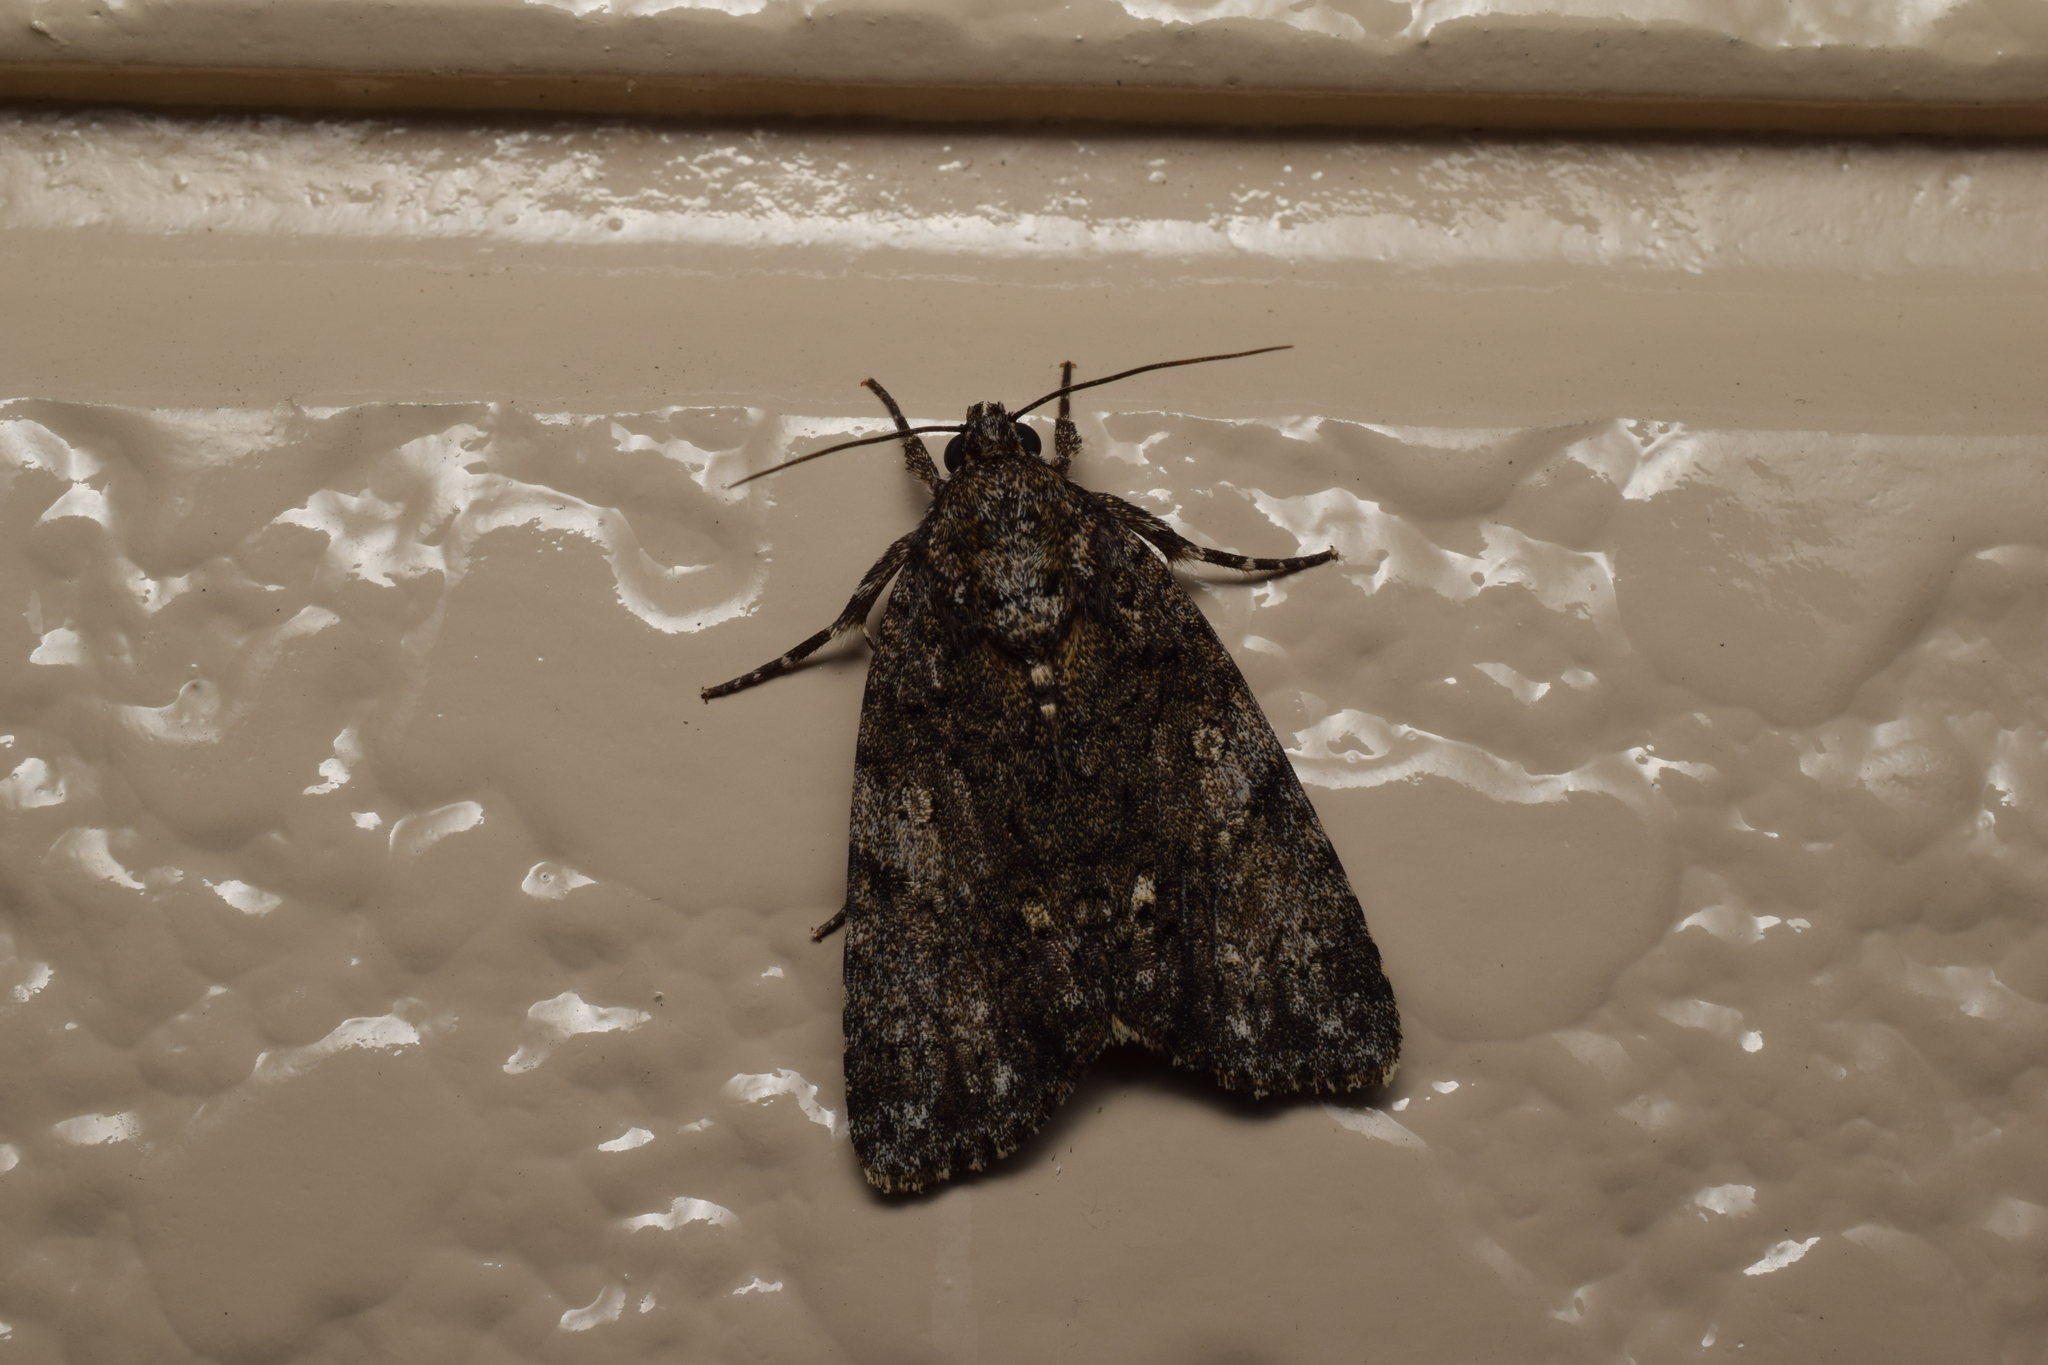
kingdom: Animalia
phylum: Arthropoda
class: Insecta
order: Lepidoptera
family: Noctuidae
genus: Acronicta
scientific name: Acronicta rumicis
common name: Knot grass
